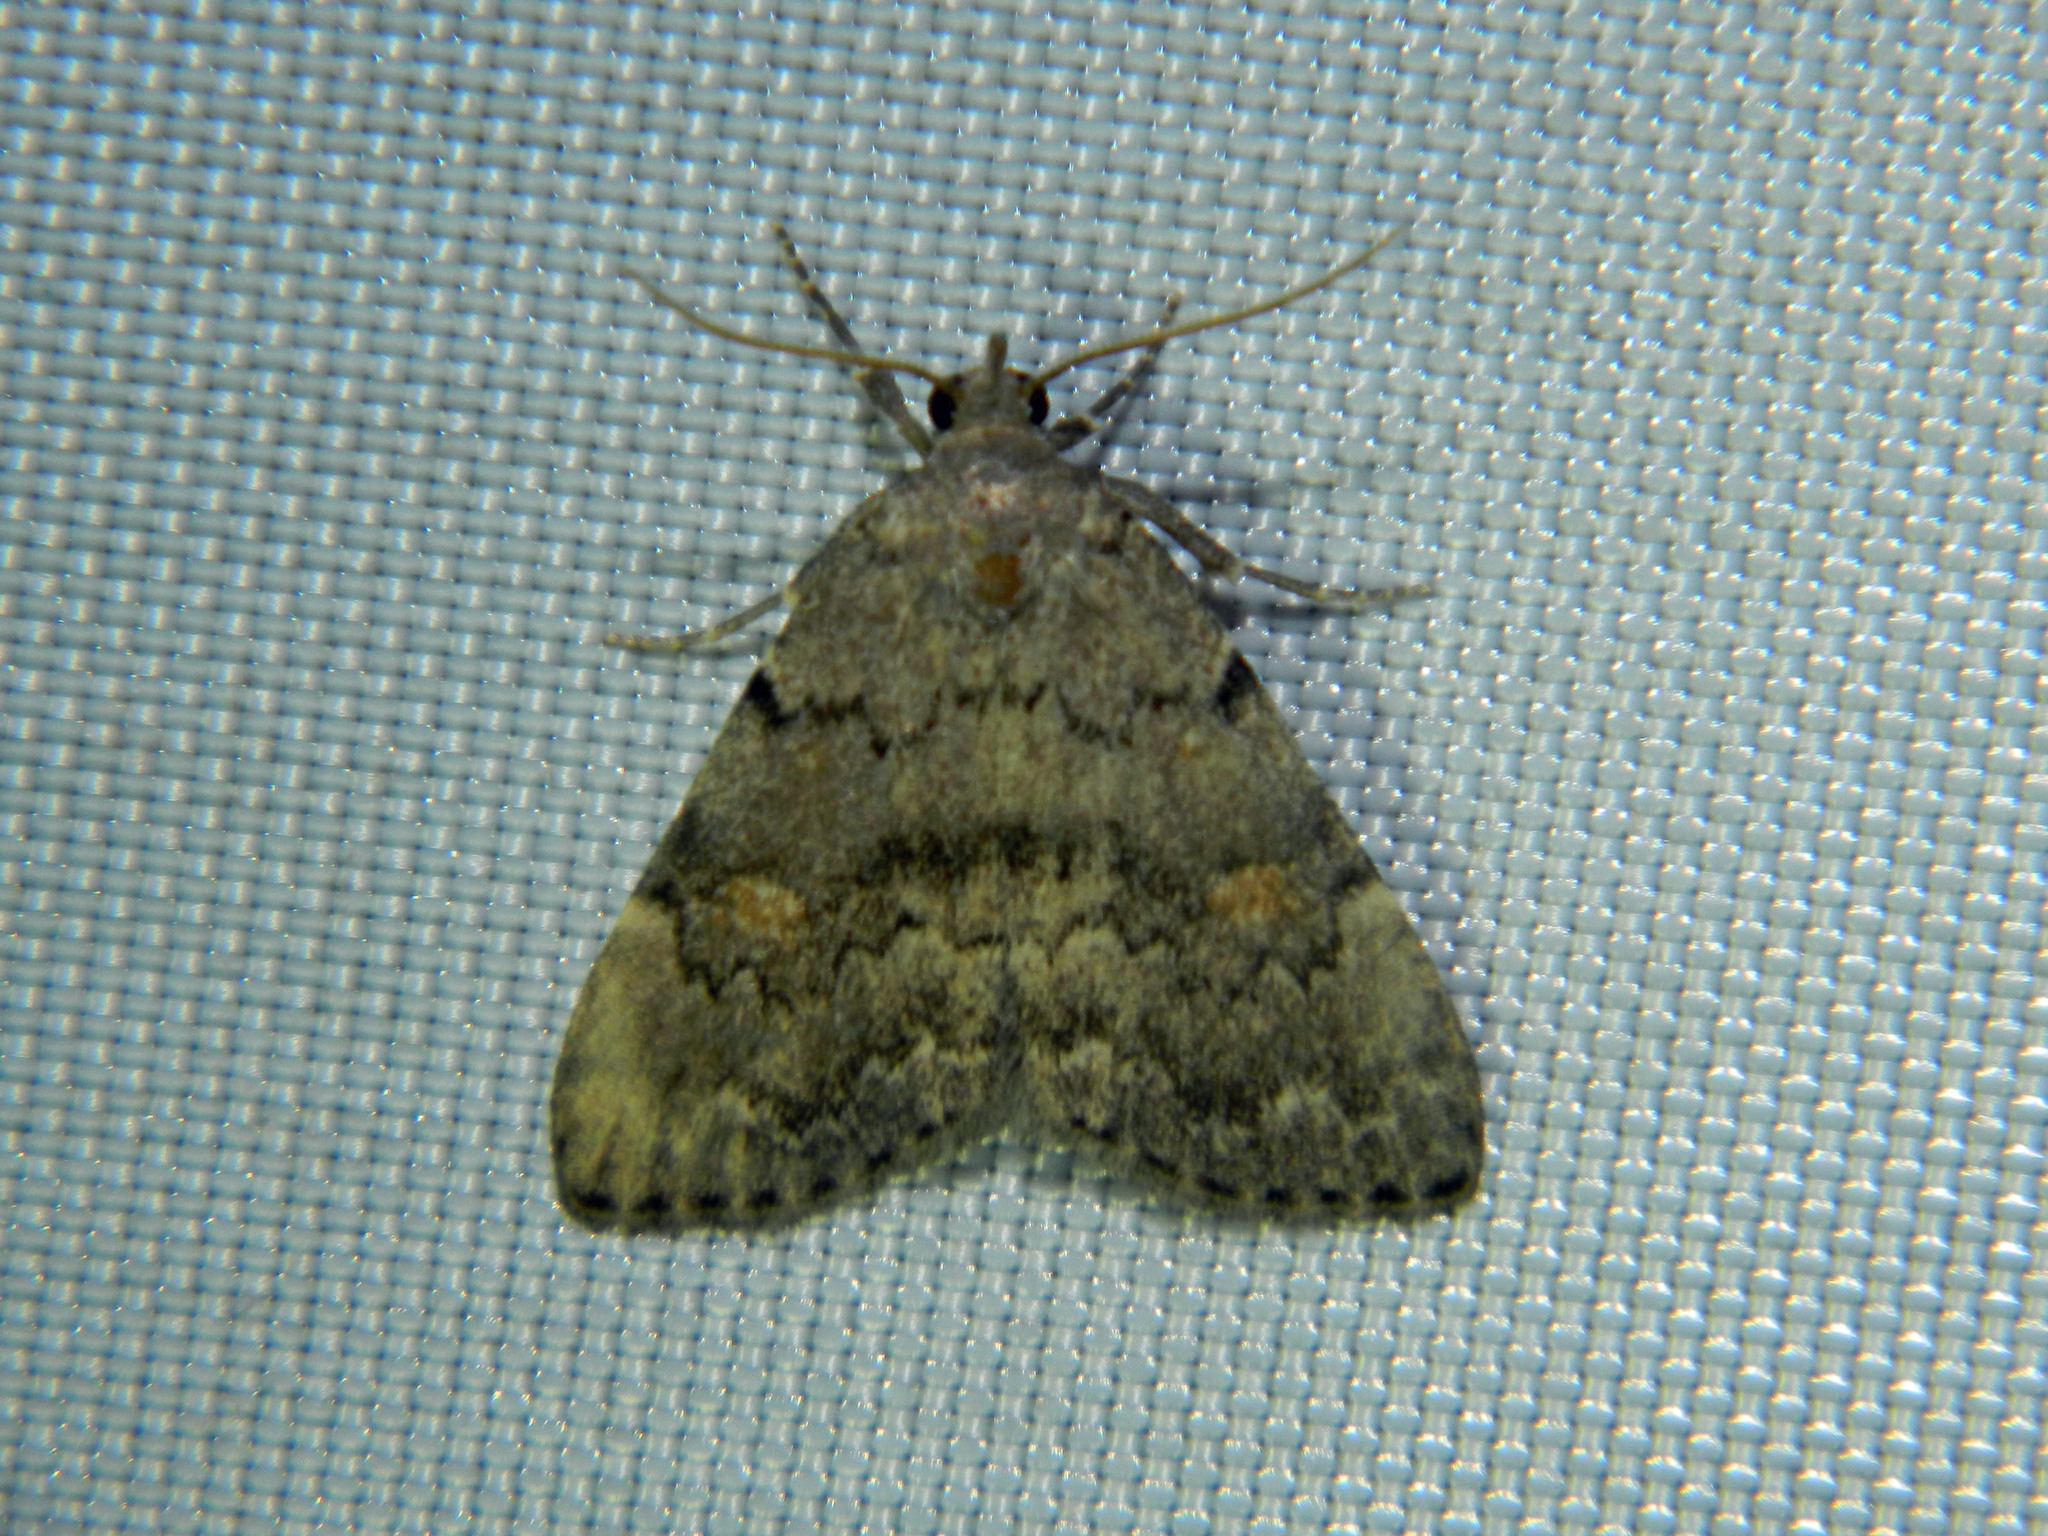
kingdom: Animalia
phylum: Arthropoda
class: Insecta
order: Lepidoptera
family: Erebidae
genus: Idia
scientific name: Idia aemula
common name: Common idia moth
